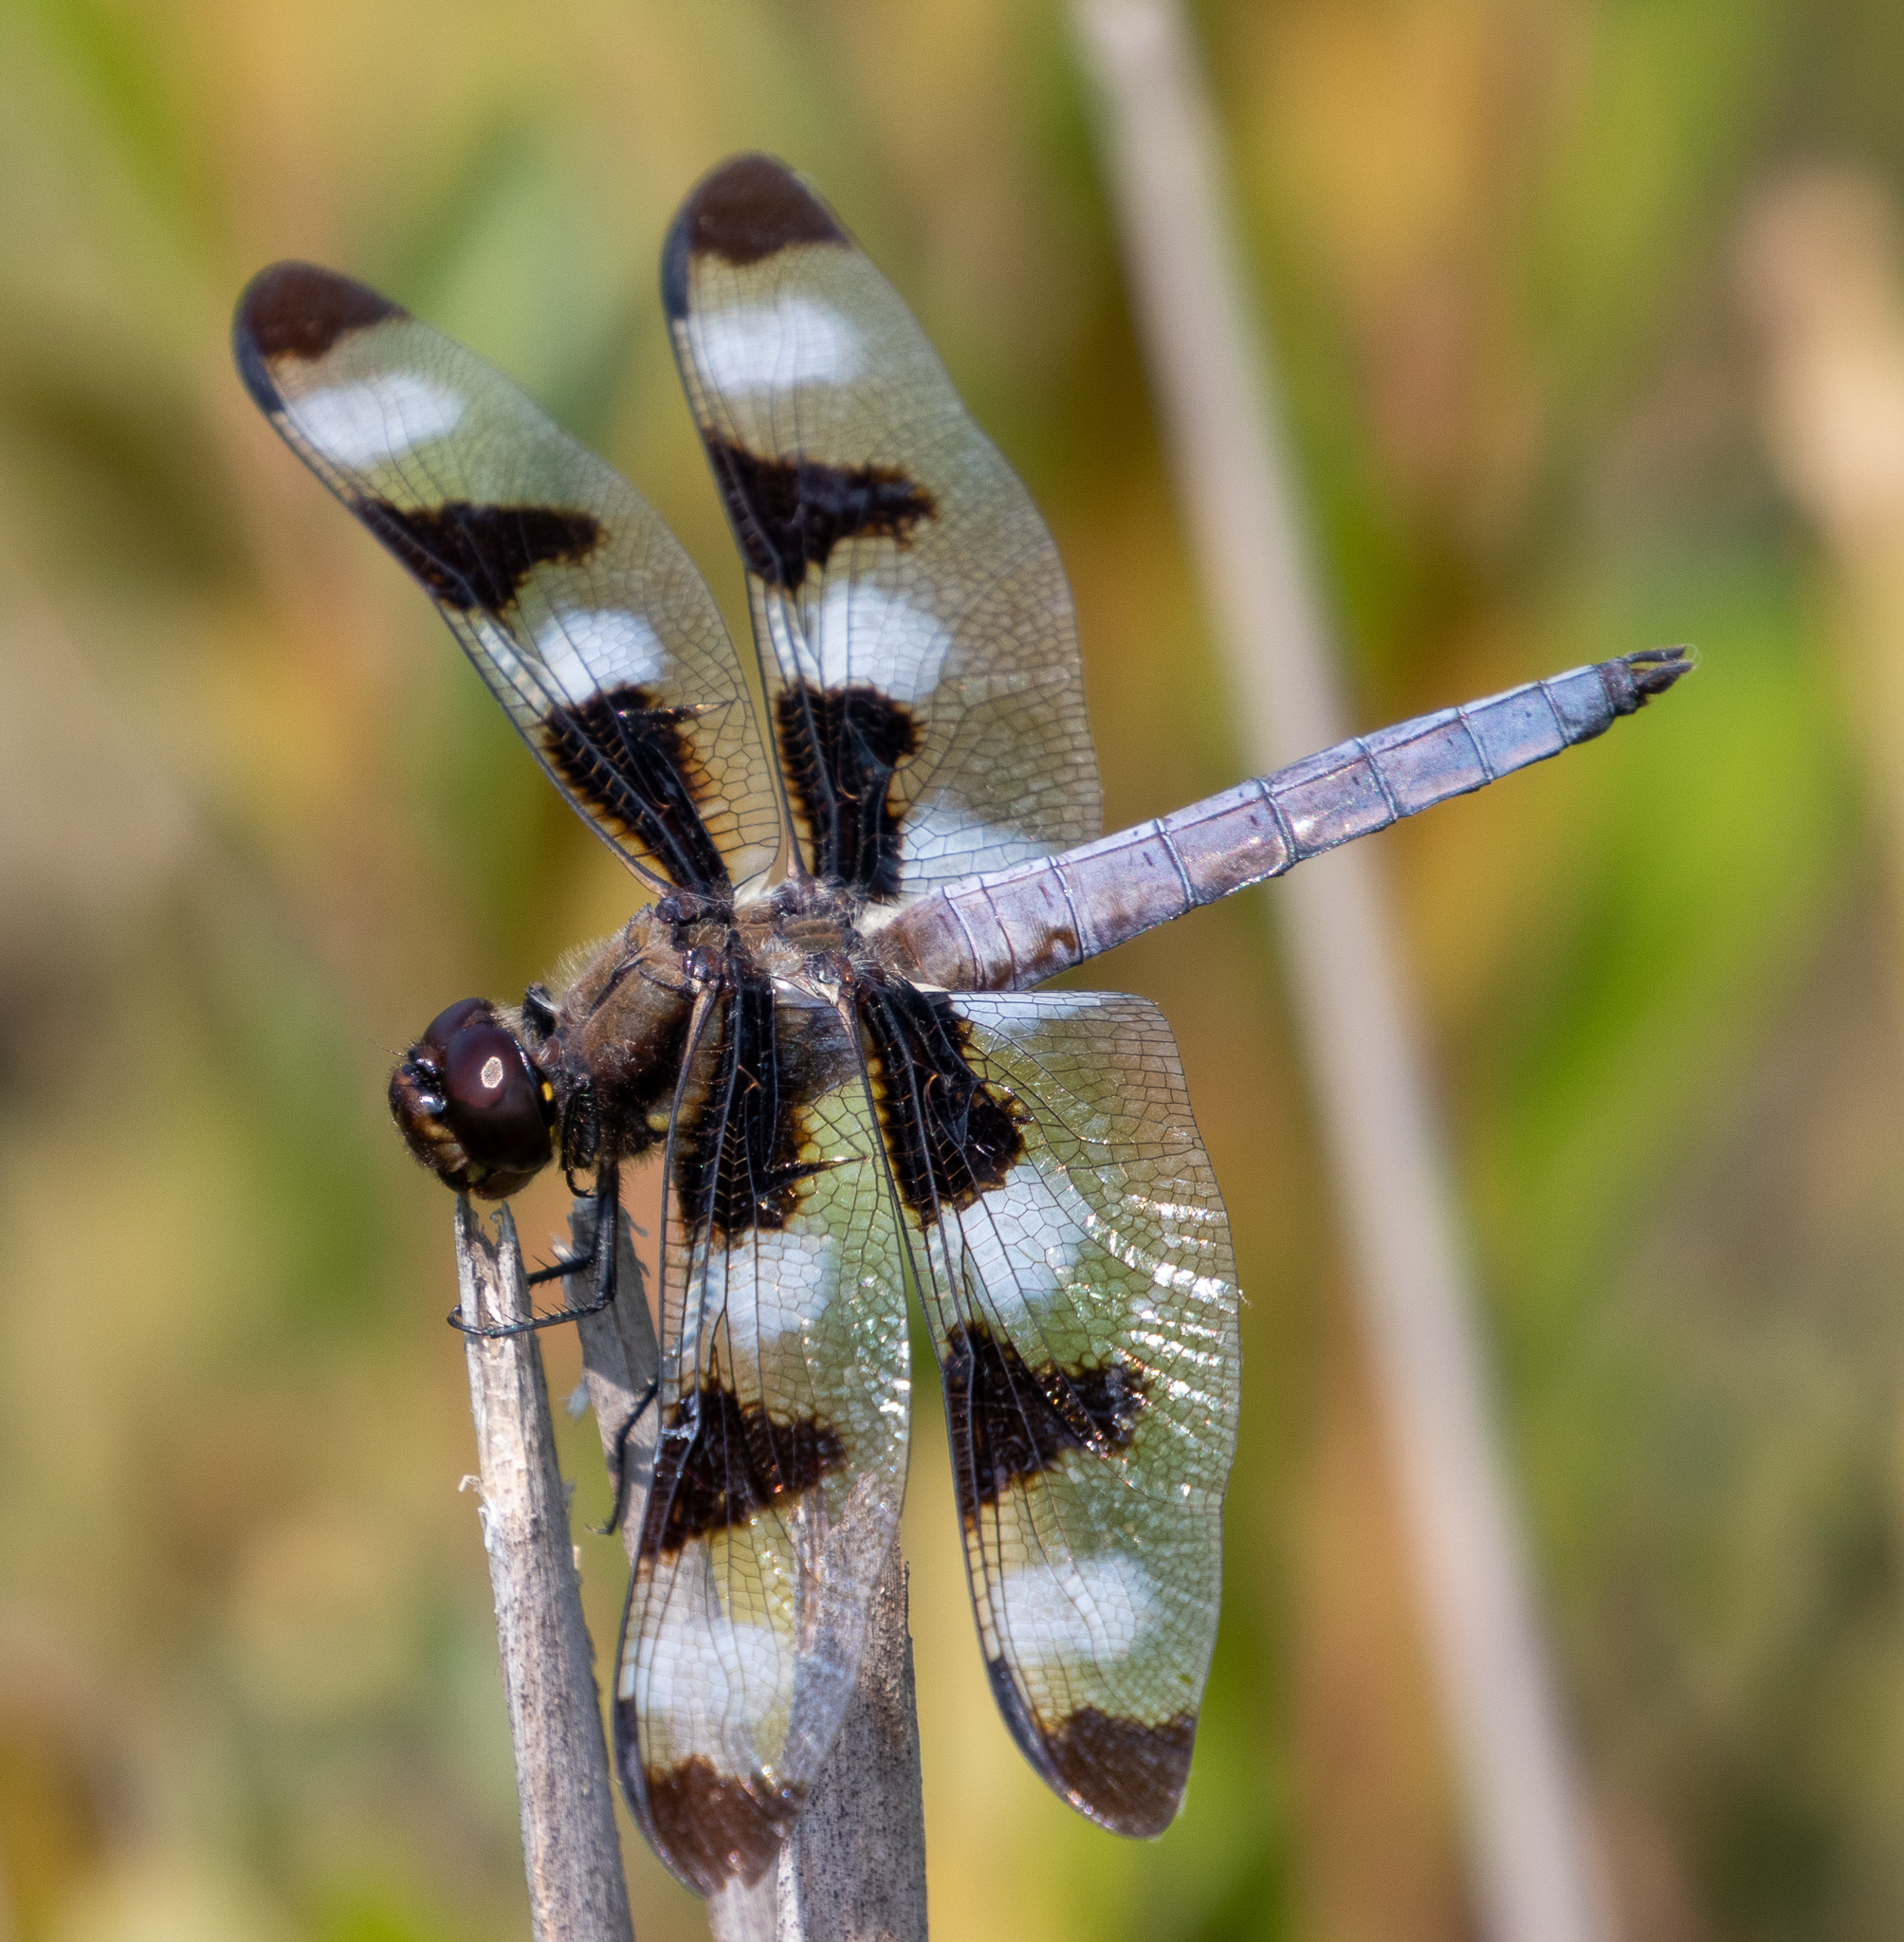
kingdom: Animalia
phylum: Arthropoda
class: Insecta
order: Odonata
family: Libellulidae
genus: Libellula
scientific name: Libellula pulchella
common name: Twelve-spotted skimmer
